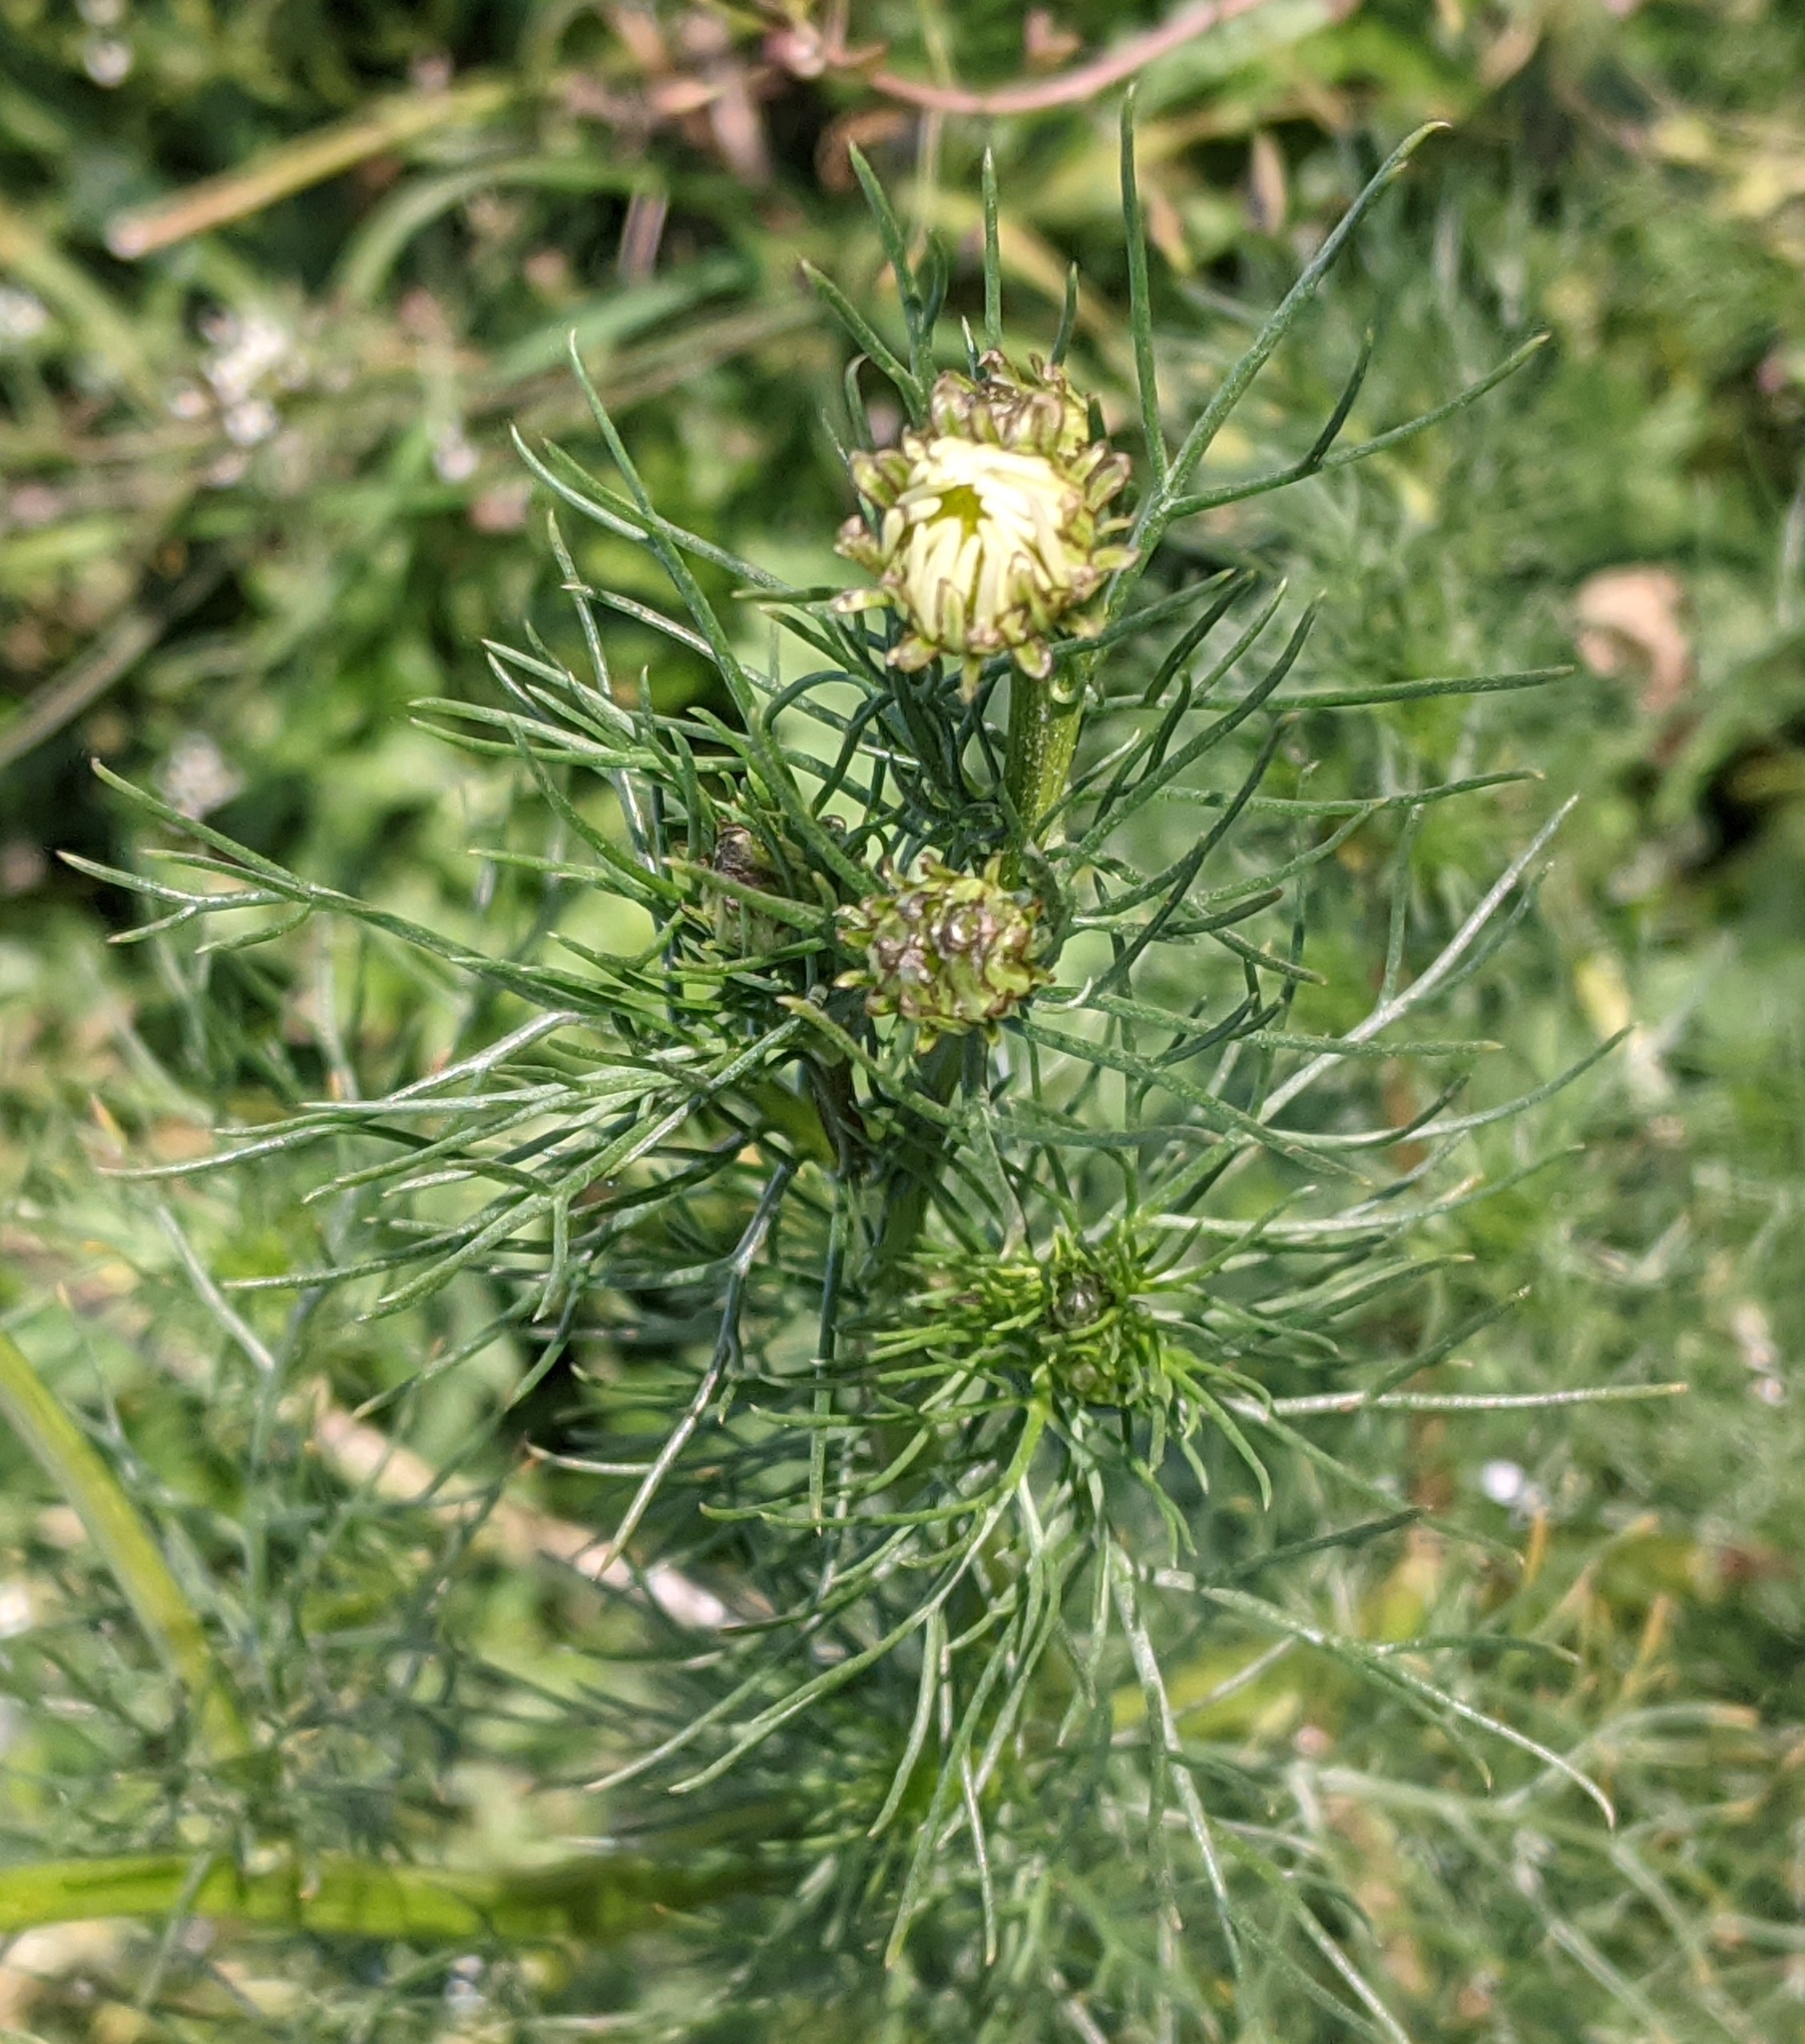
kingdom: Plantae
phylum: Tracheophyta
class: Magnoliopsida
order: Asterales
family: Asteraceae
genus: Tripleurospermum
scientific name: Tripleurospermum inodorum
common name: Scentless mayweed
